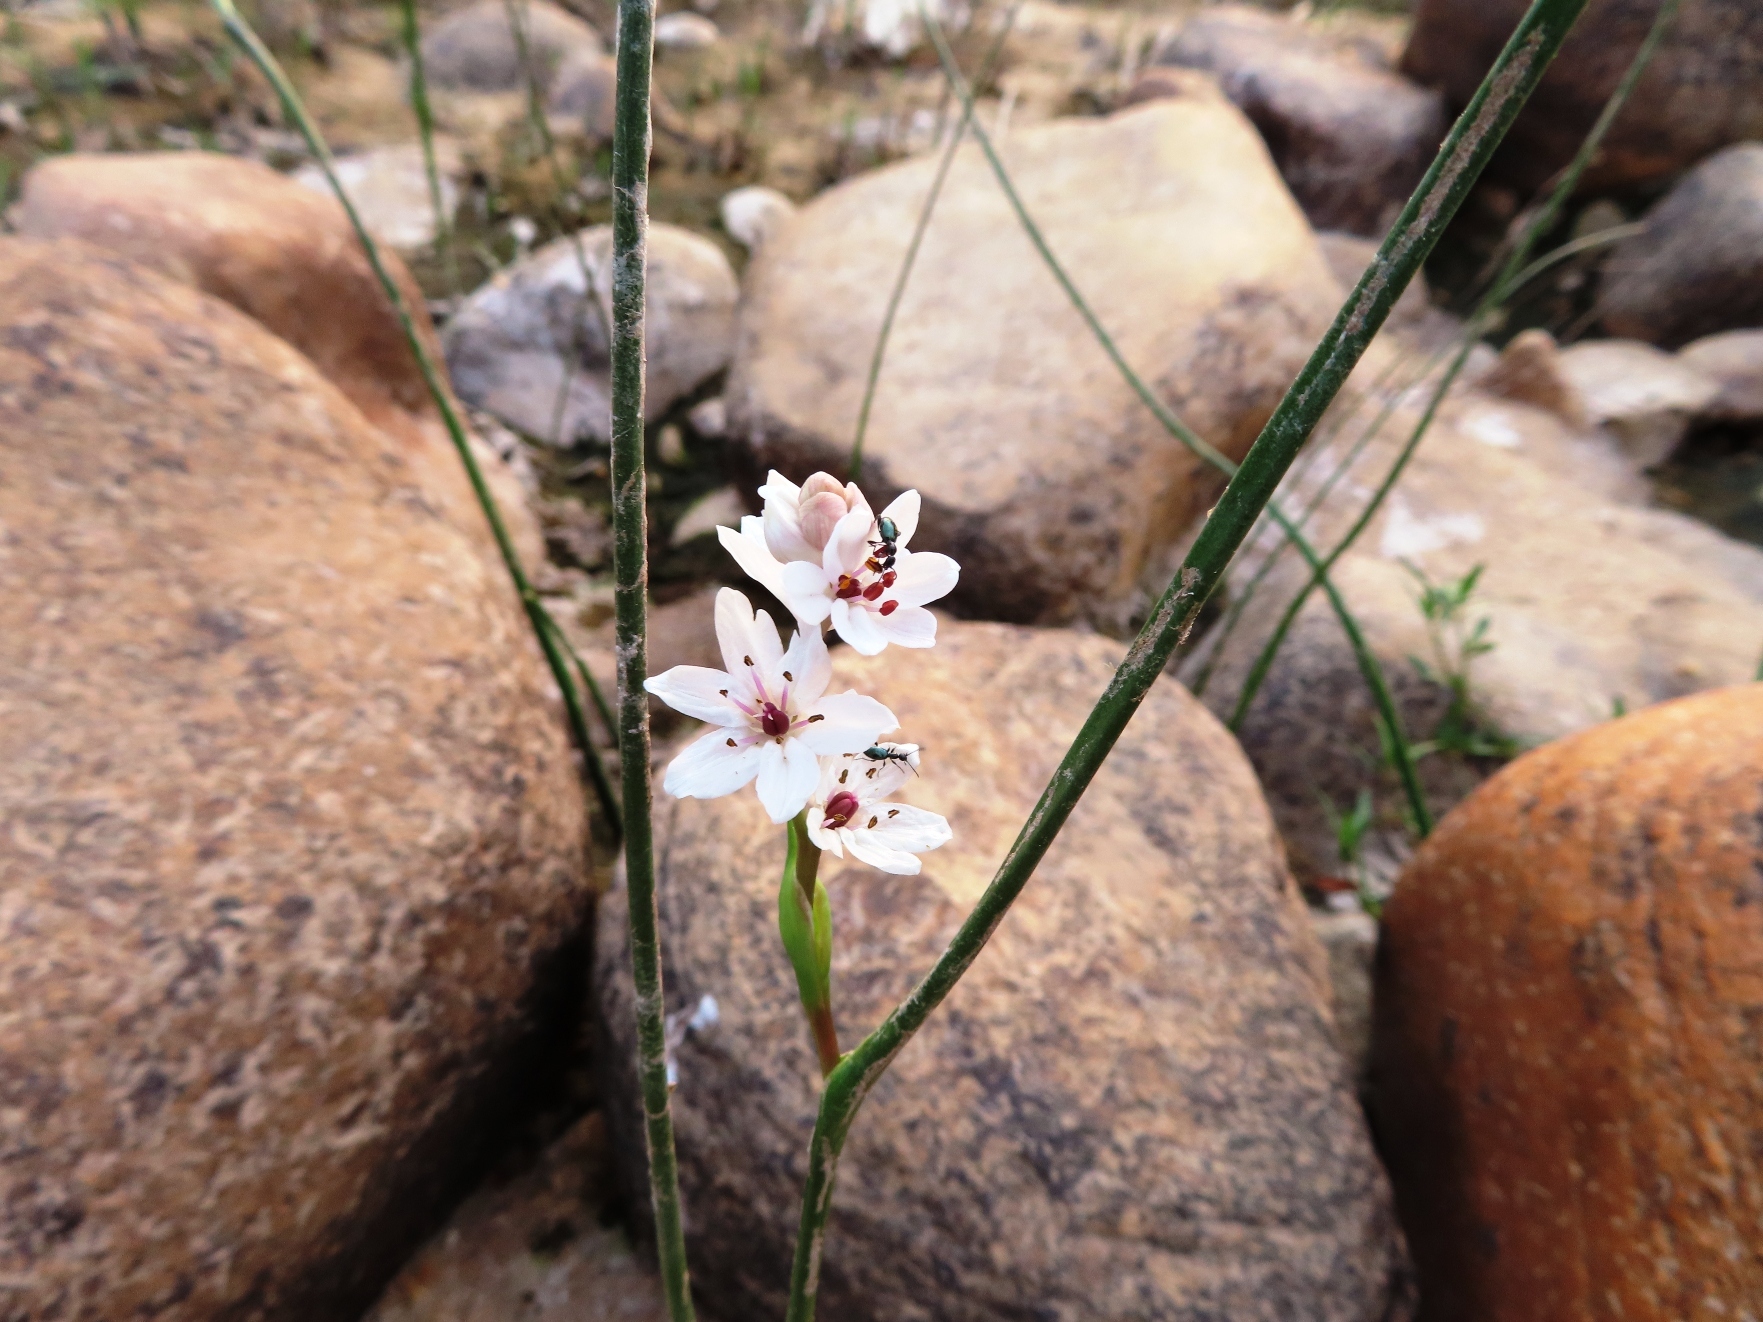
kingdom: Plantae
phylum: Tracheophyta
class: Liliopsida
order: Liliales
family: Colchicaceae
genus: Wurmbea
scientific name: Wurmbea stricta
